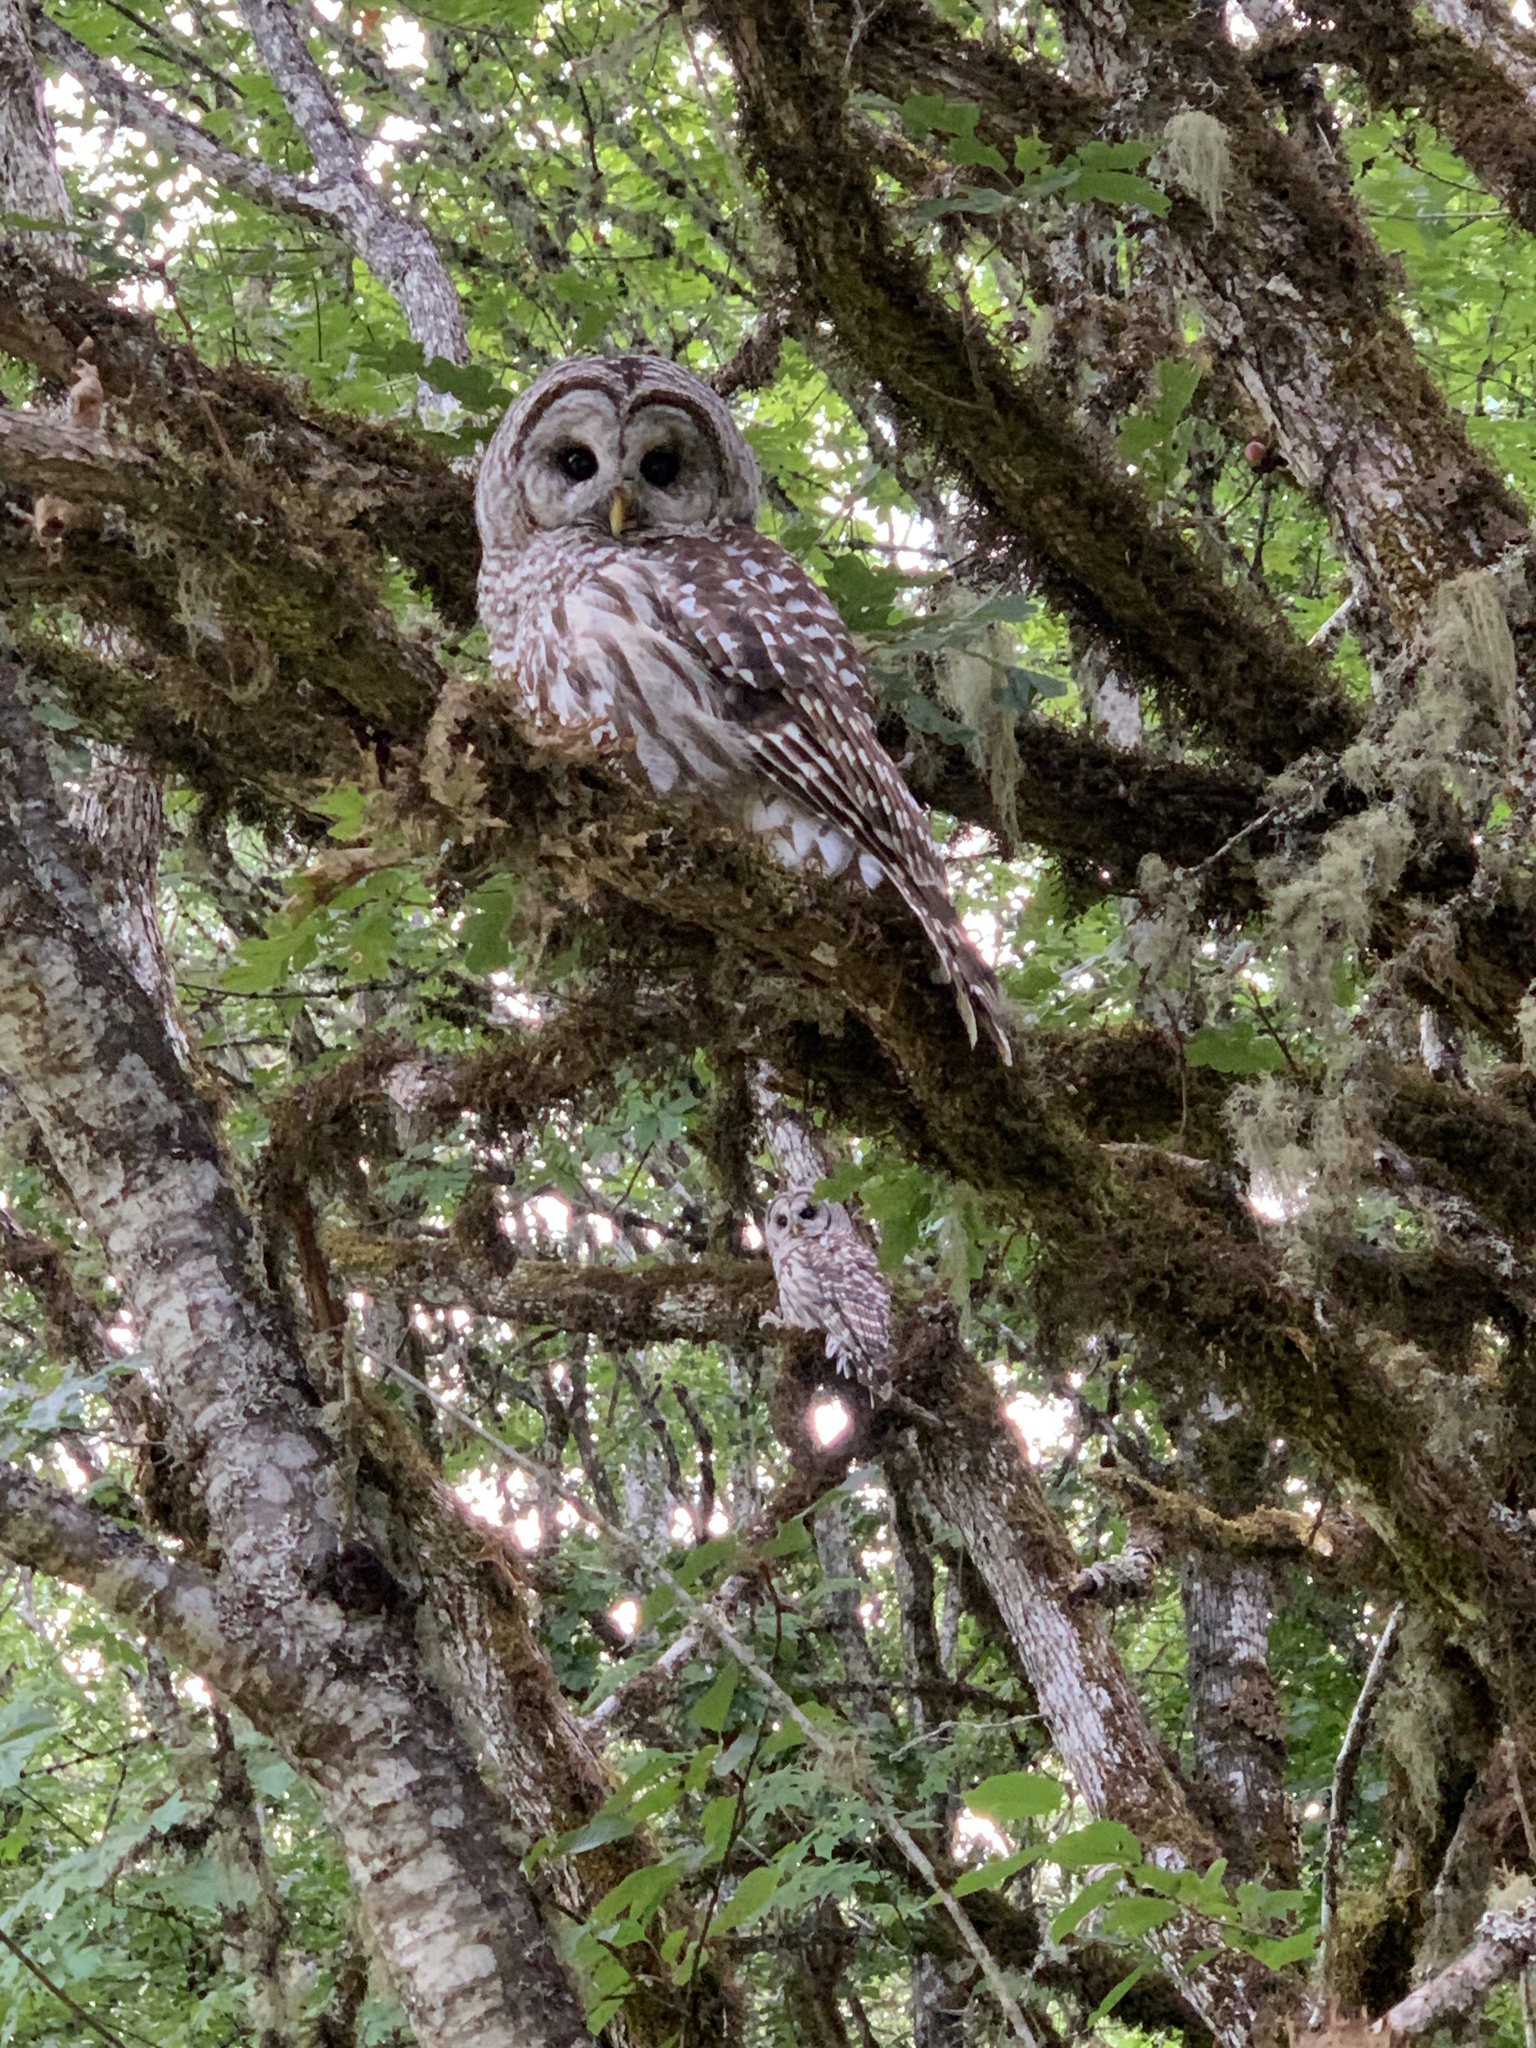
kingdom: Animalia
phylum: Chordata
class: Aves
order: Strigiformes
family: Strigidae
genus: Strix
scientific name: Strix varia
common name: Barred owl
